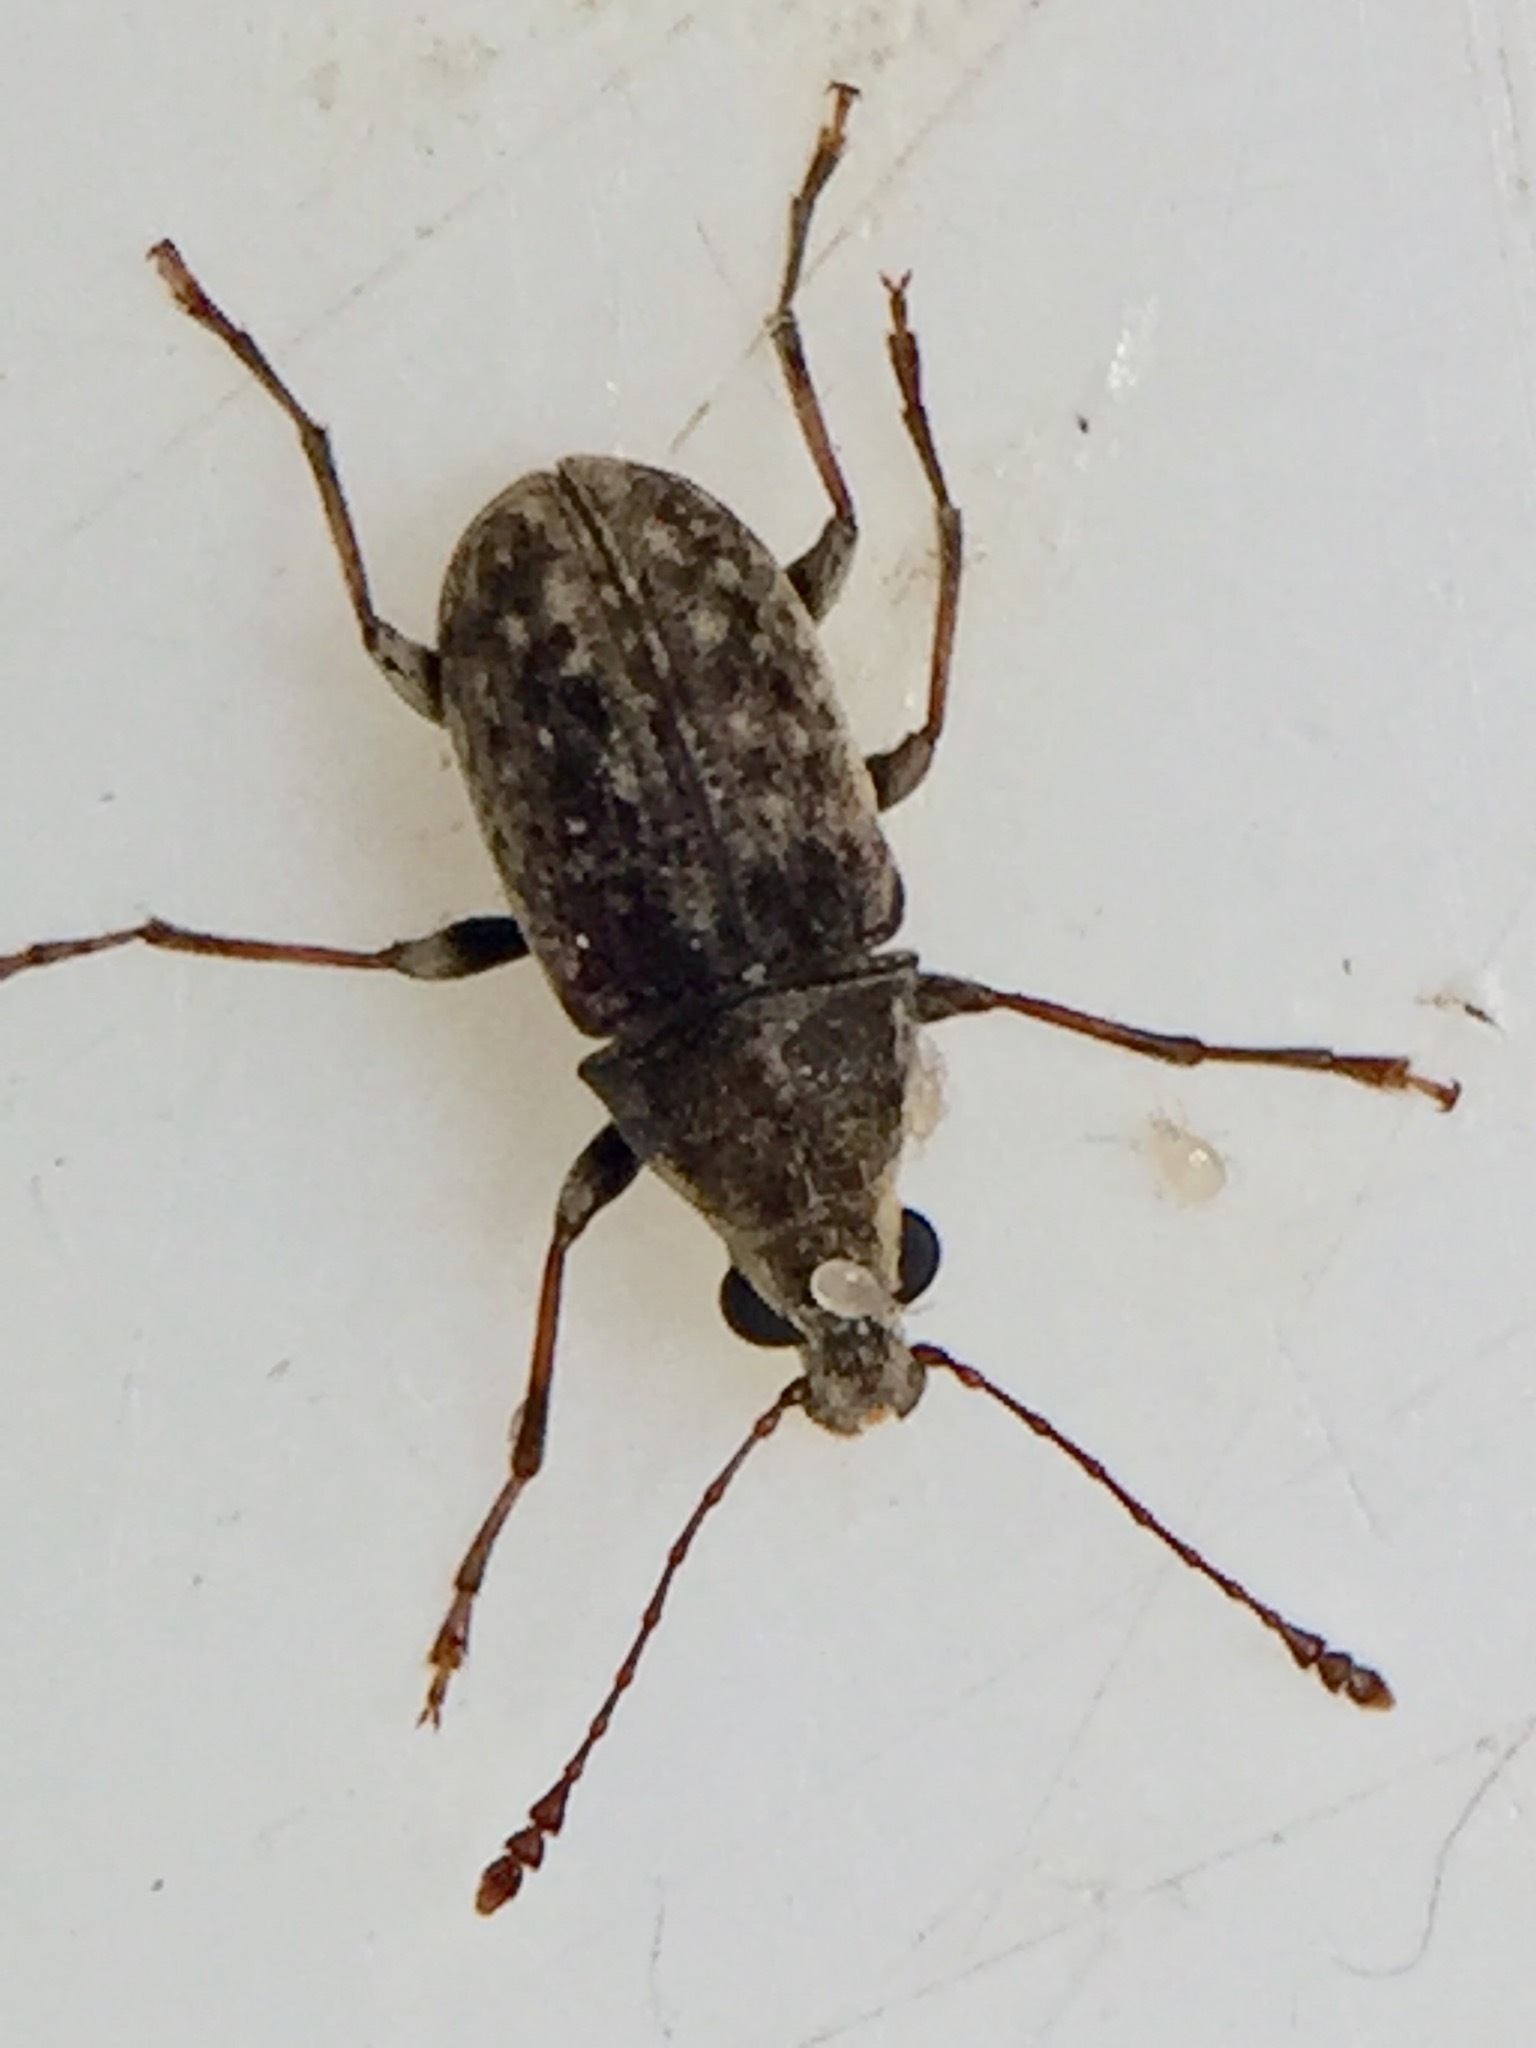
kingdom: Animalia
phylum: Arthropoda
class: Insecta
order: Coleoptera
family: Anthribidae
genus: Cacephatus
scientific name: Cacephatus huttoni
